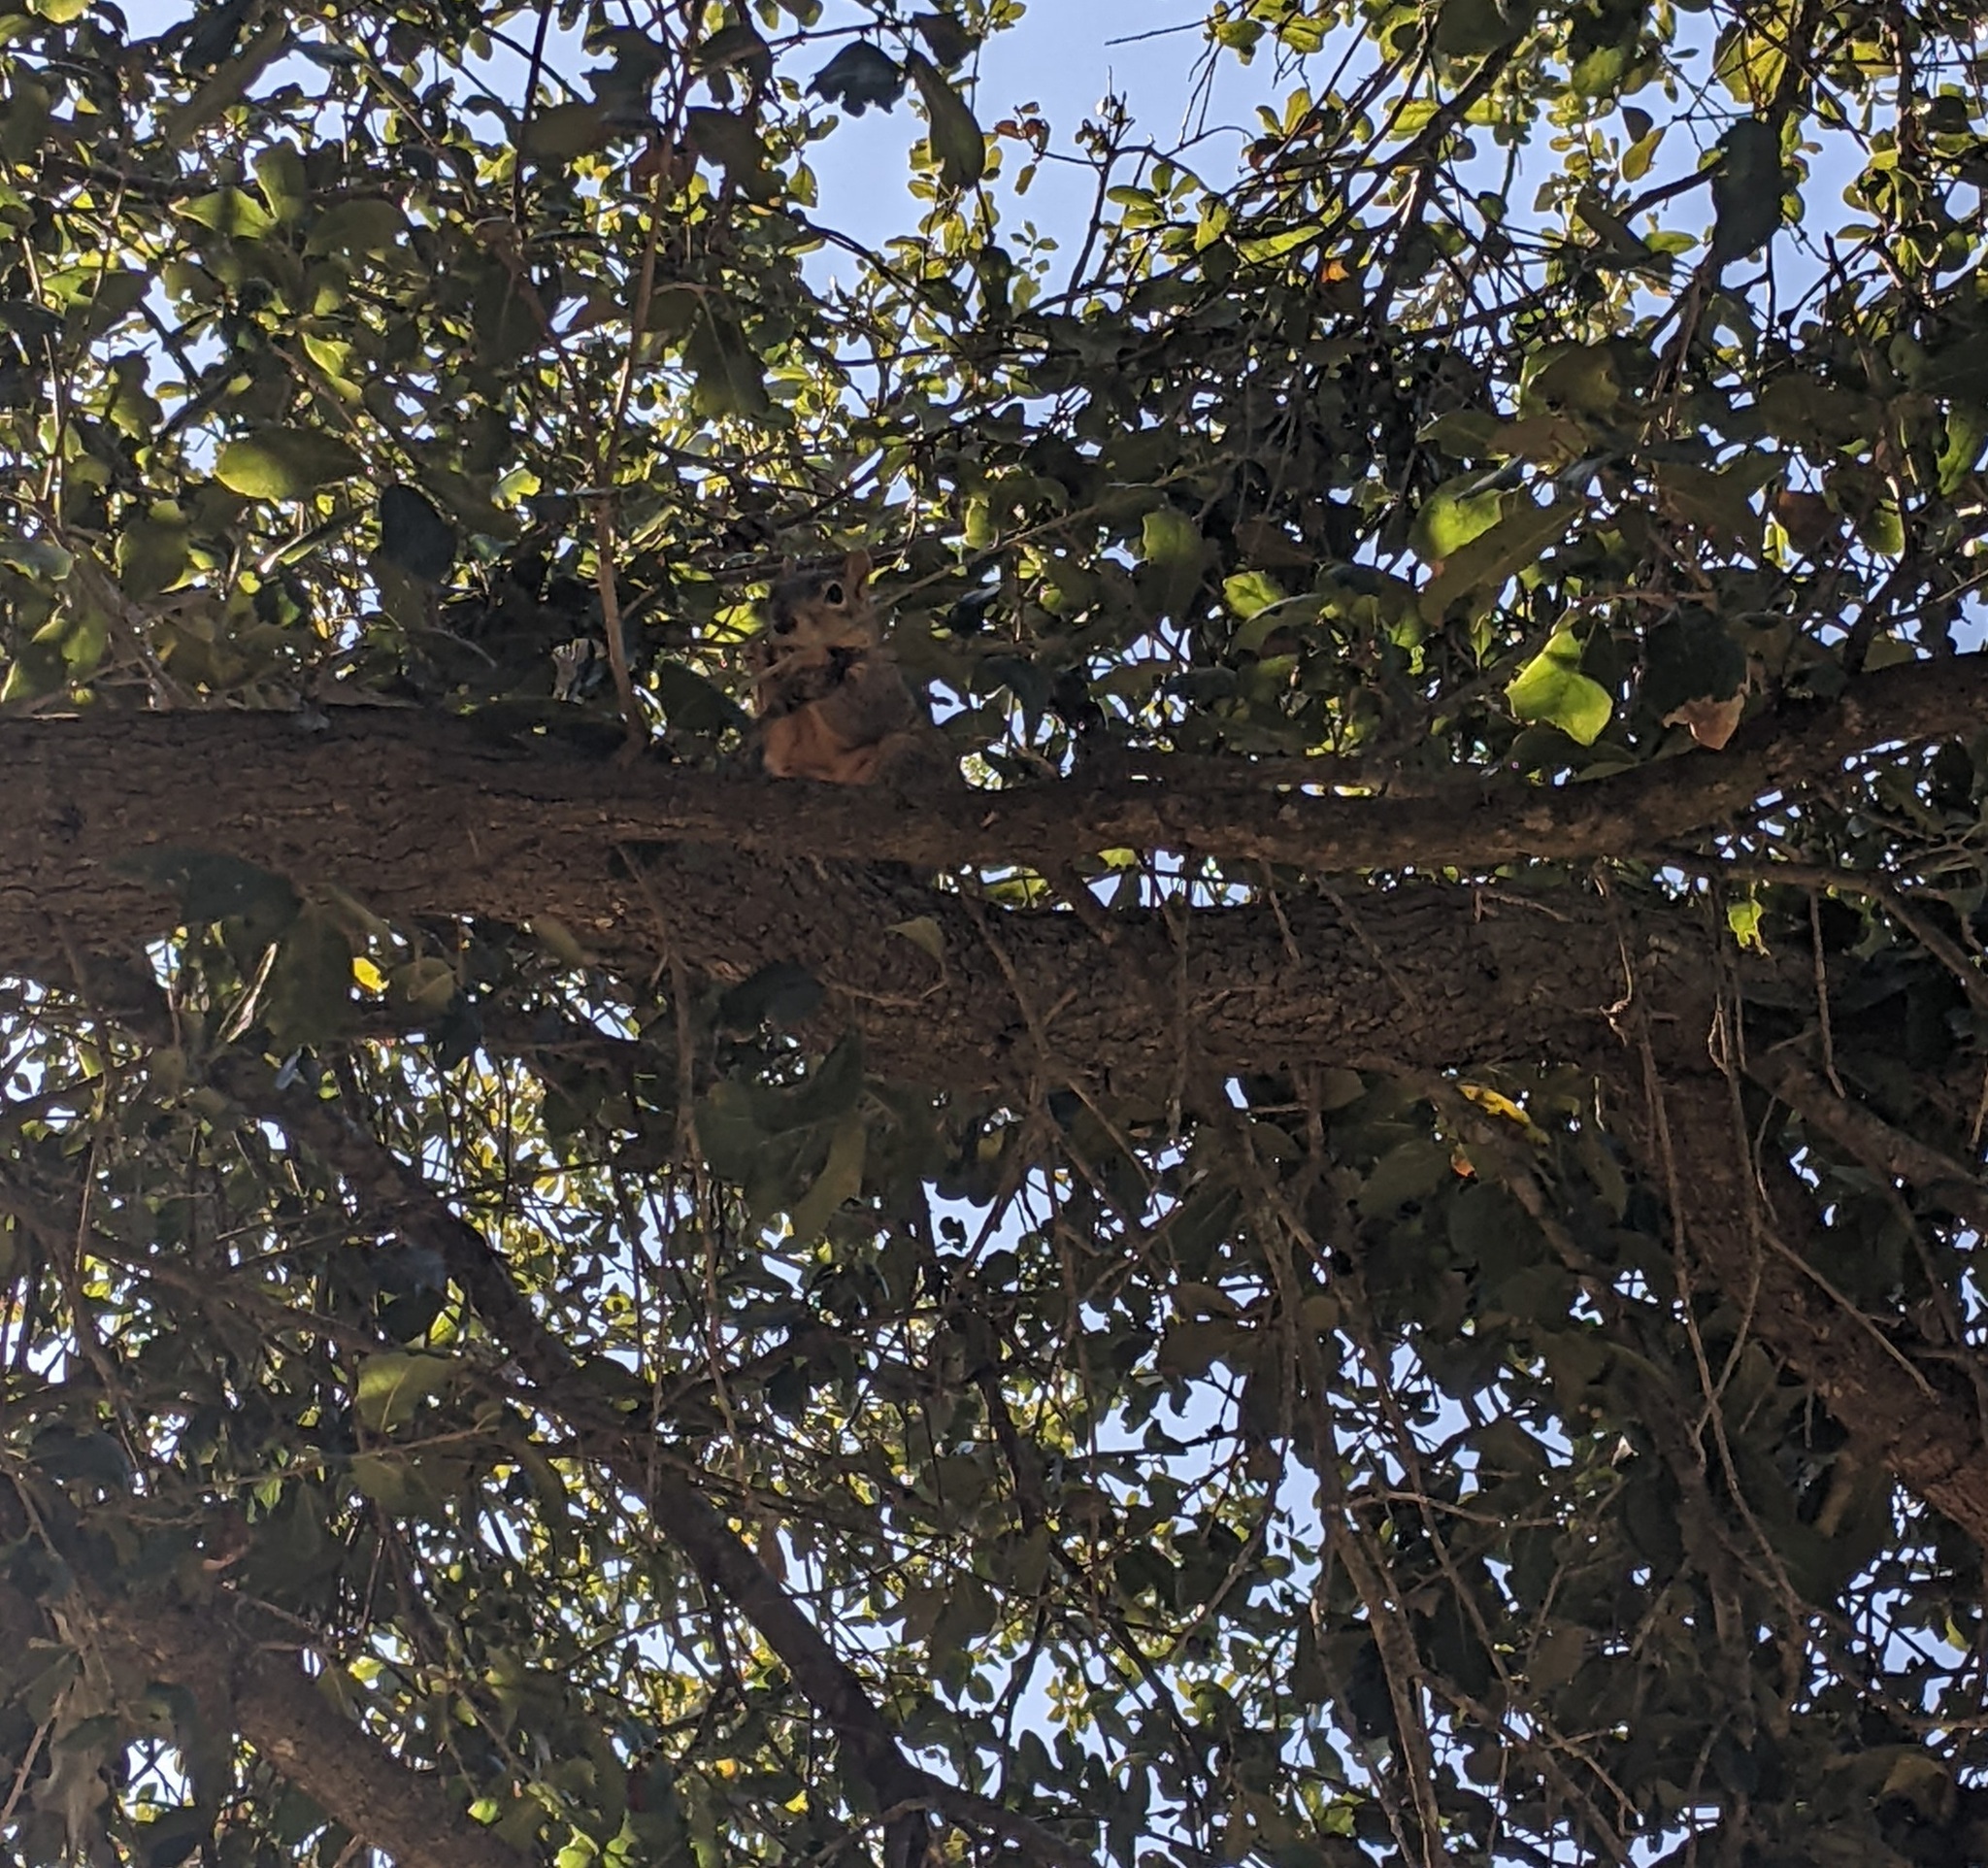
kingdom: Animalia
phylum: Chordata
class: Mammalia
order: Rodentia
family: Sciuridae
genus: Sciurus
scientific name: Sciurus niger
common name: Fox squirrel
